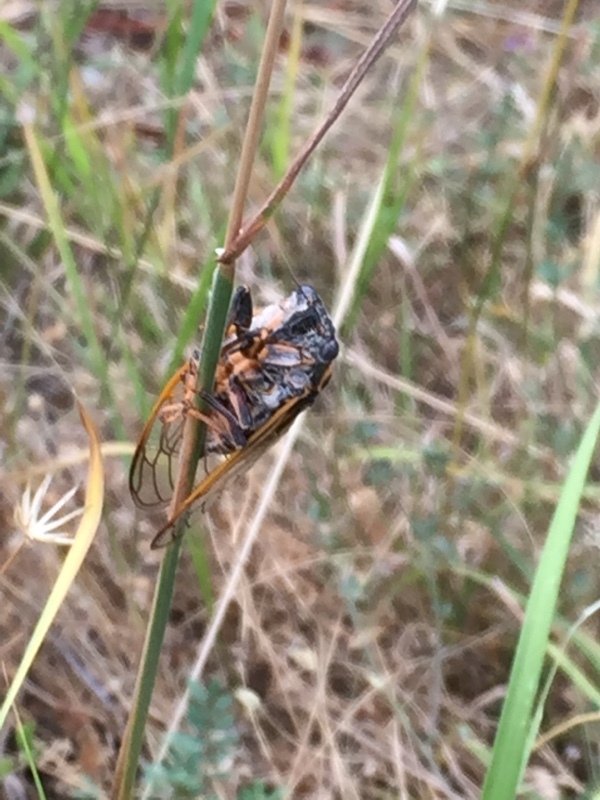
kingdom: Animalia
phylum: Arthropoda
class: Insecta
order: Hemiptera
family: Cicadidae
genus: Tibicina
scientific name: Tibicina steveni
